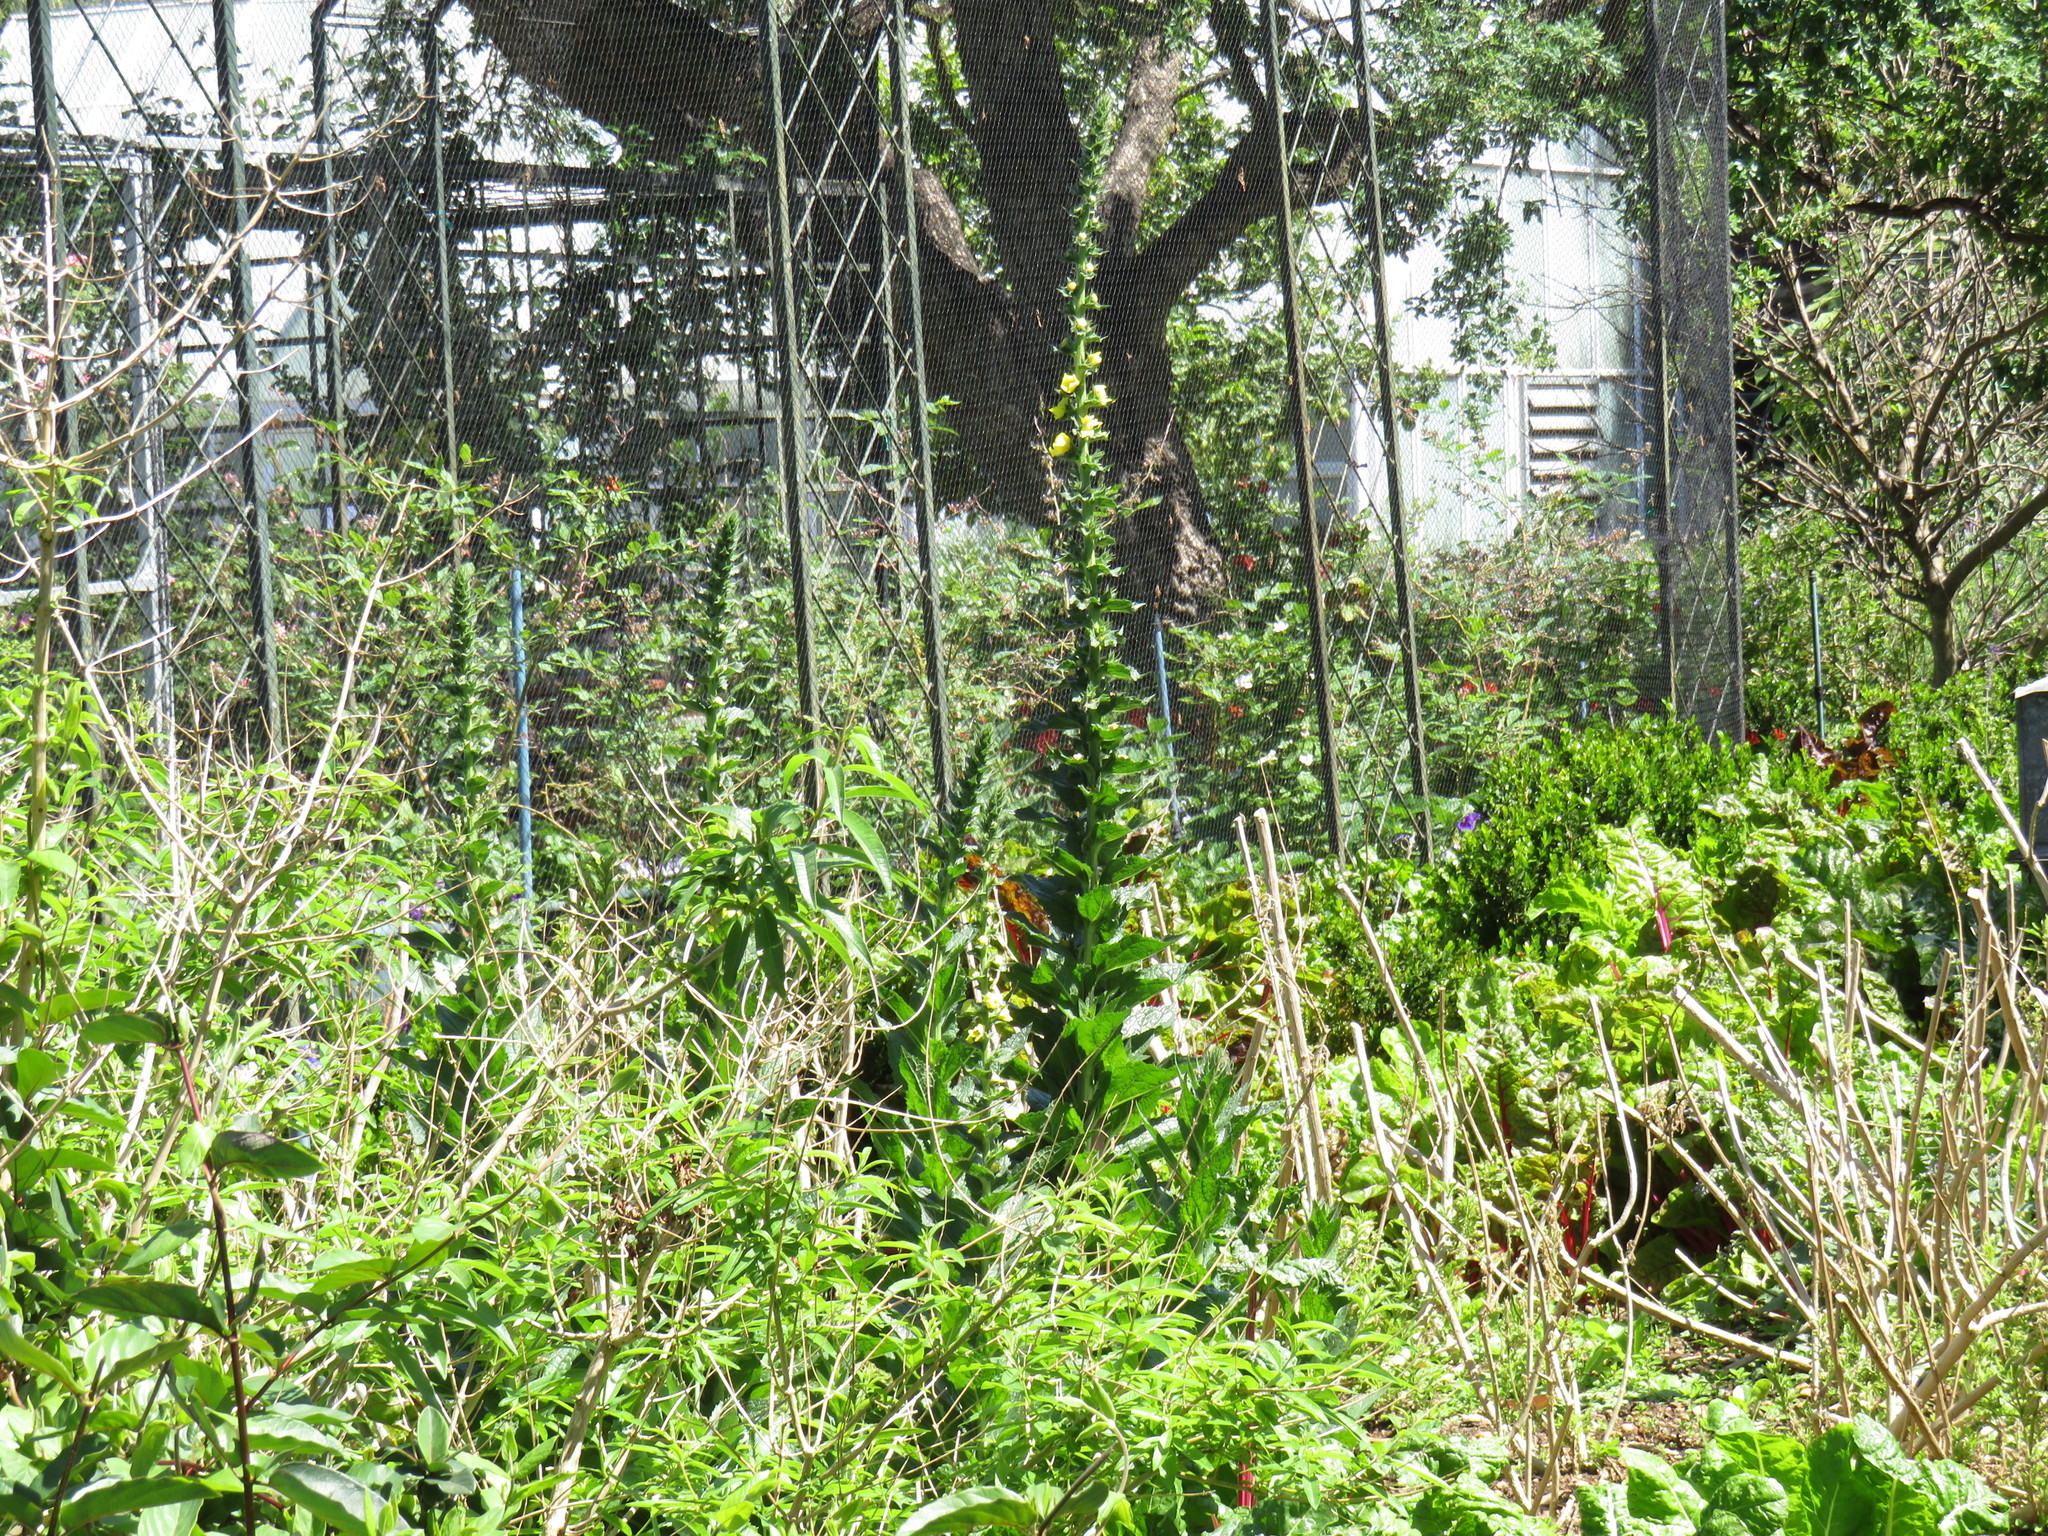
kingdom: Plantae
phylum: Tracheophyta
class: Magnoliopsida
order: Lamiales
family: Scrophulariaceae
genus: Verbascum
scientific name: Verbascum virgatum
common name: Twiggy mullein
